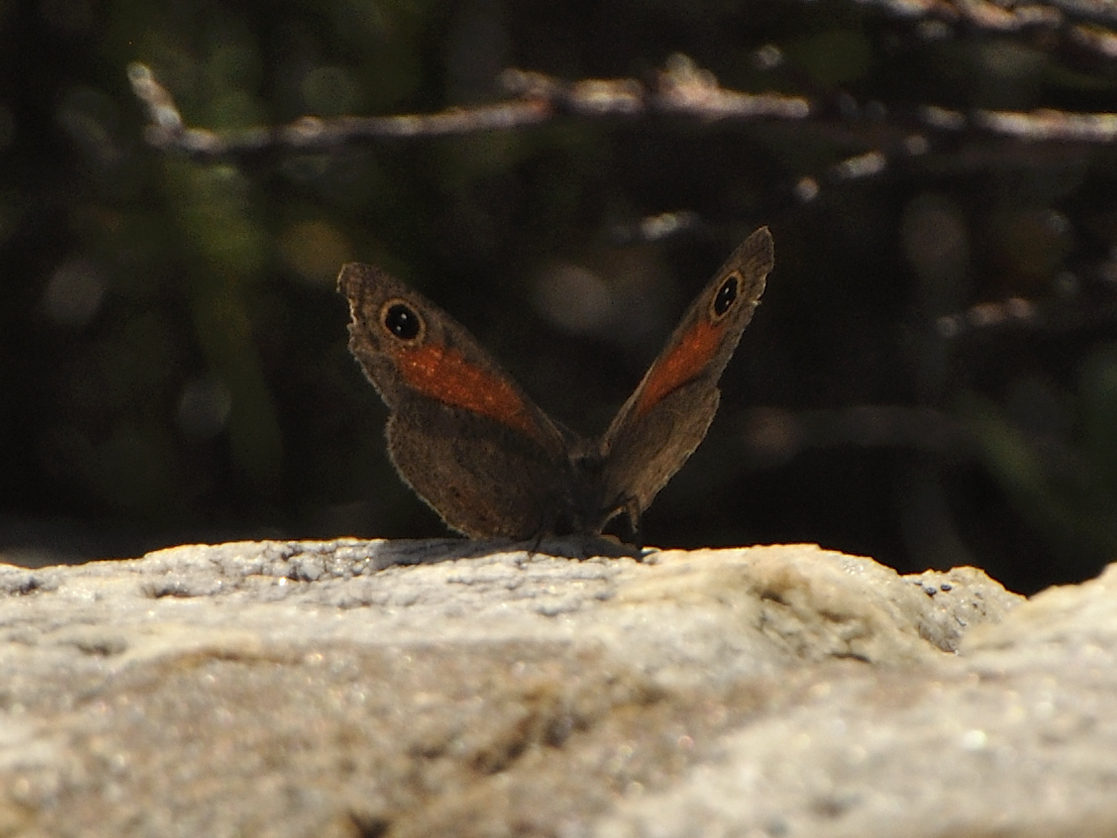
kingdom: Animalia
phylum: Arthropoda
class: Insecta
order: Lepidoptera
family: Nymphalidae
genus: Cassionympha
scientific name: Cassionympha cassius
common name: Rainforest brown
